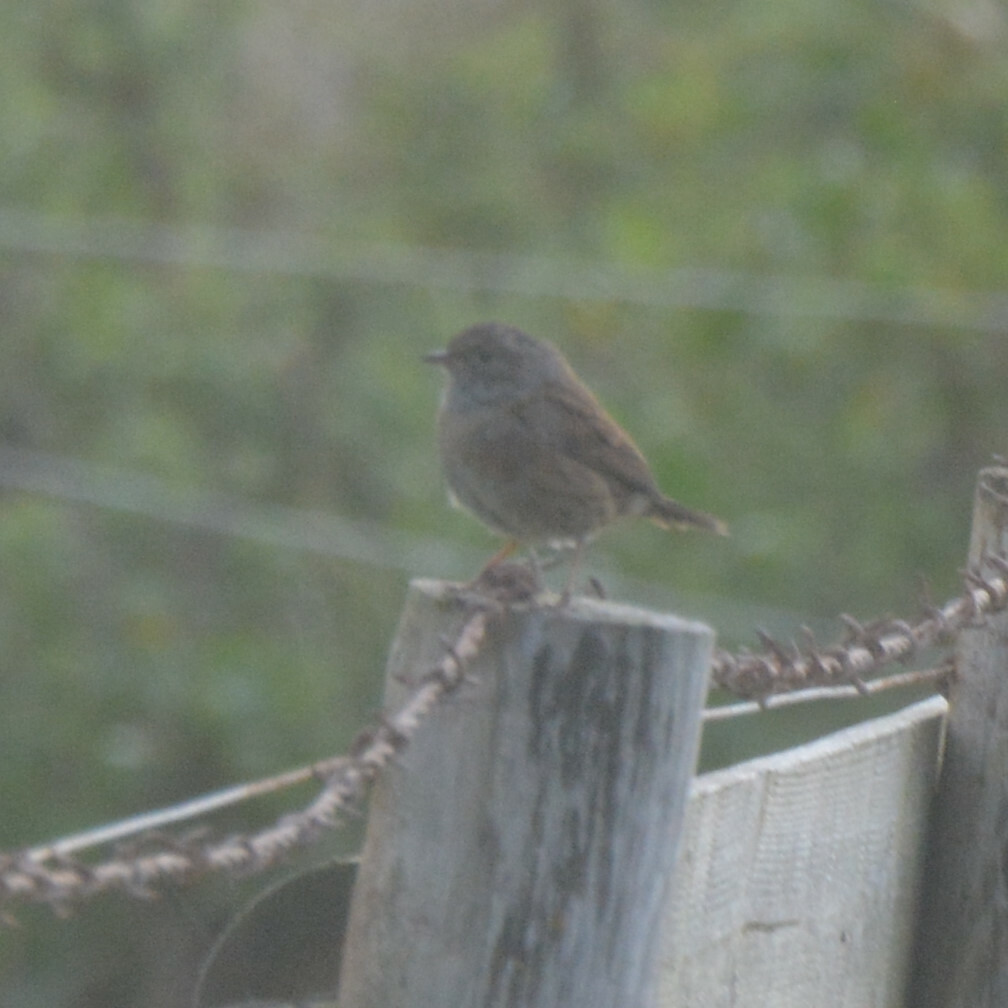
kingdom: Animalia
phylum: Chordata
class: Aves
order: Passeriformes
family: Prunellidae
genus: Prunella
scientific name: Prunella modularis
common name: Dunnock
